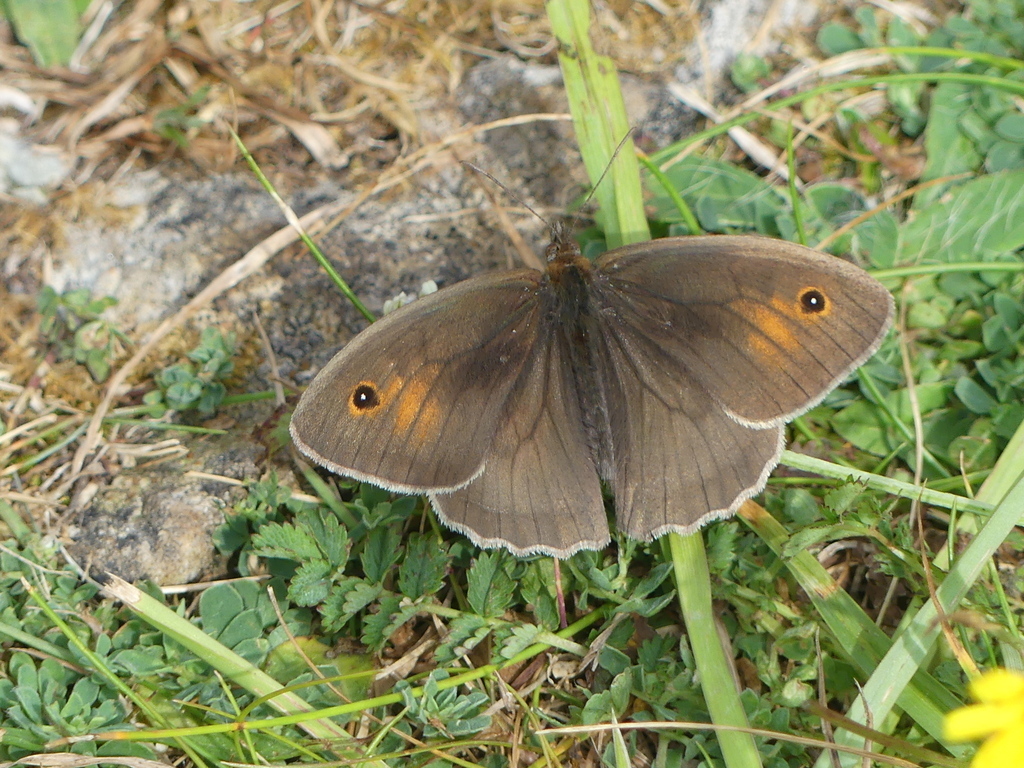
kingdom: Animalia
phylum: Arthropoda
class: Insecta
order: Lepidoptera
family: Nymphalidae
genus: Maniola
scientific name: Maniola jurtina
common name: Meadow brown
